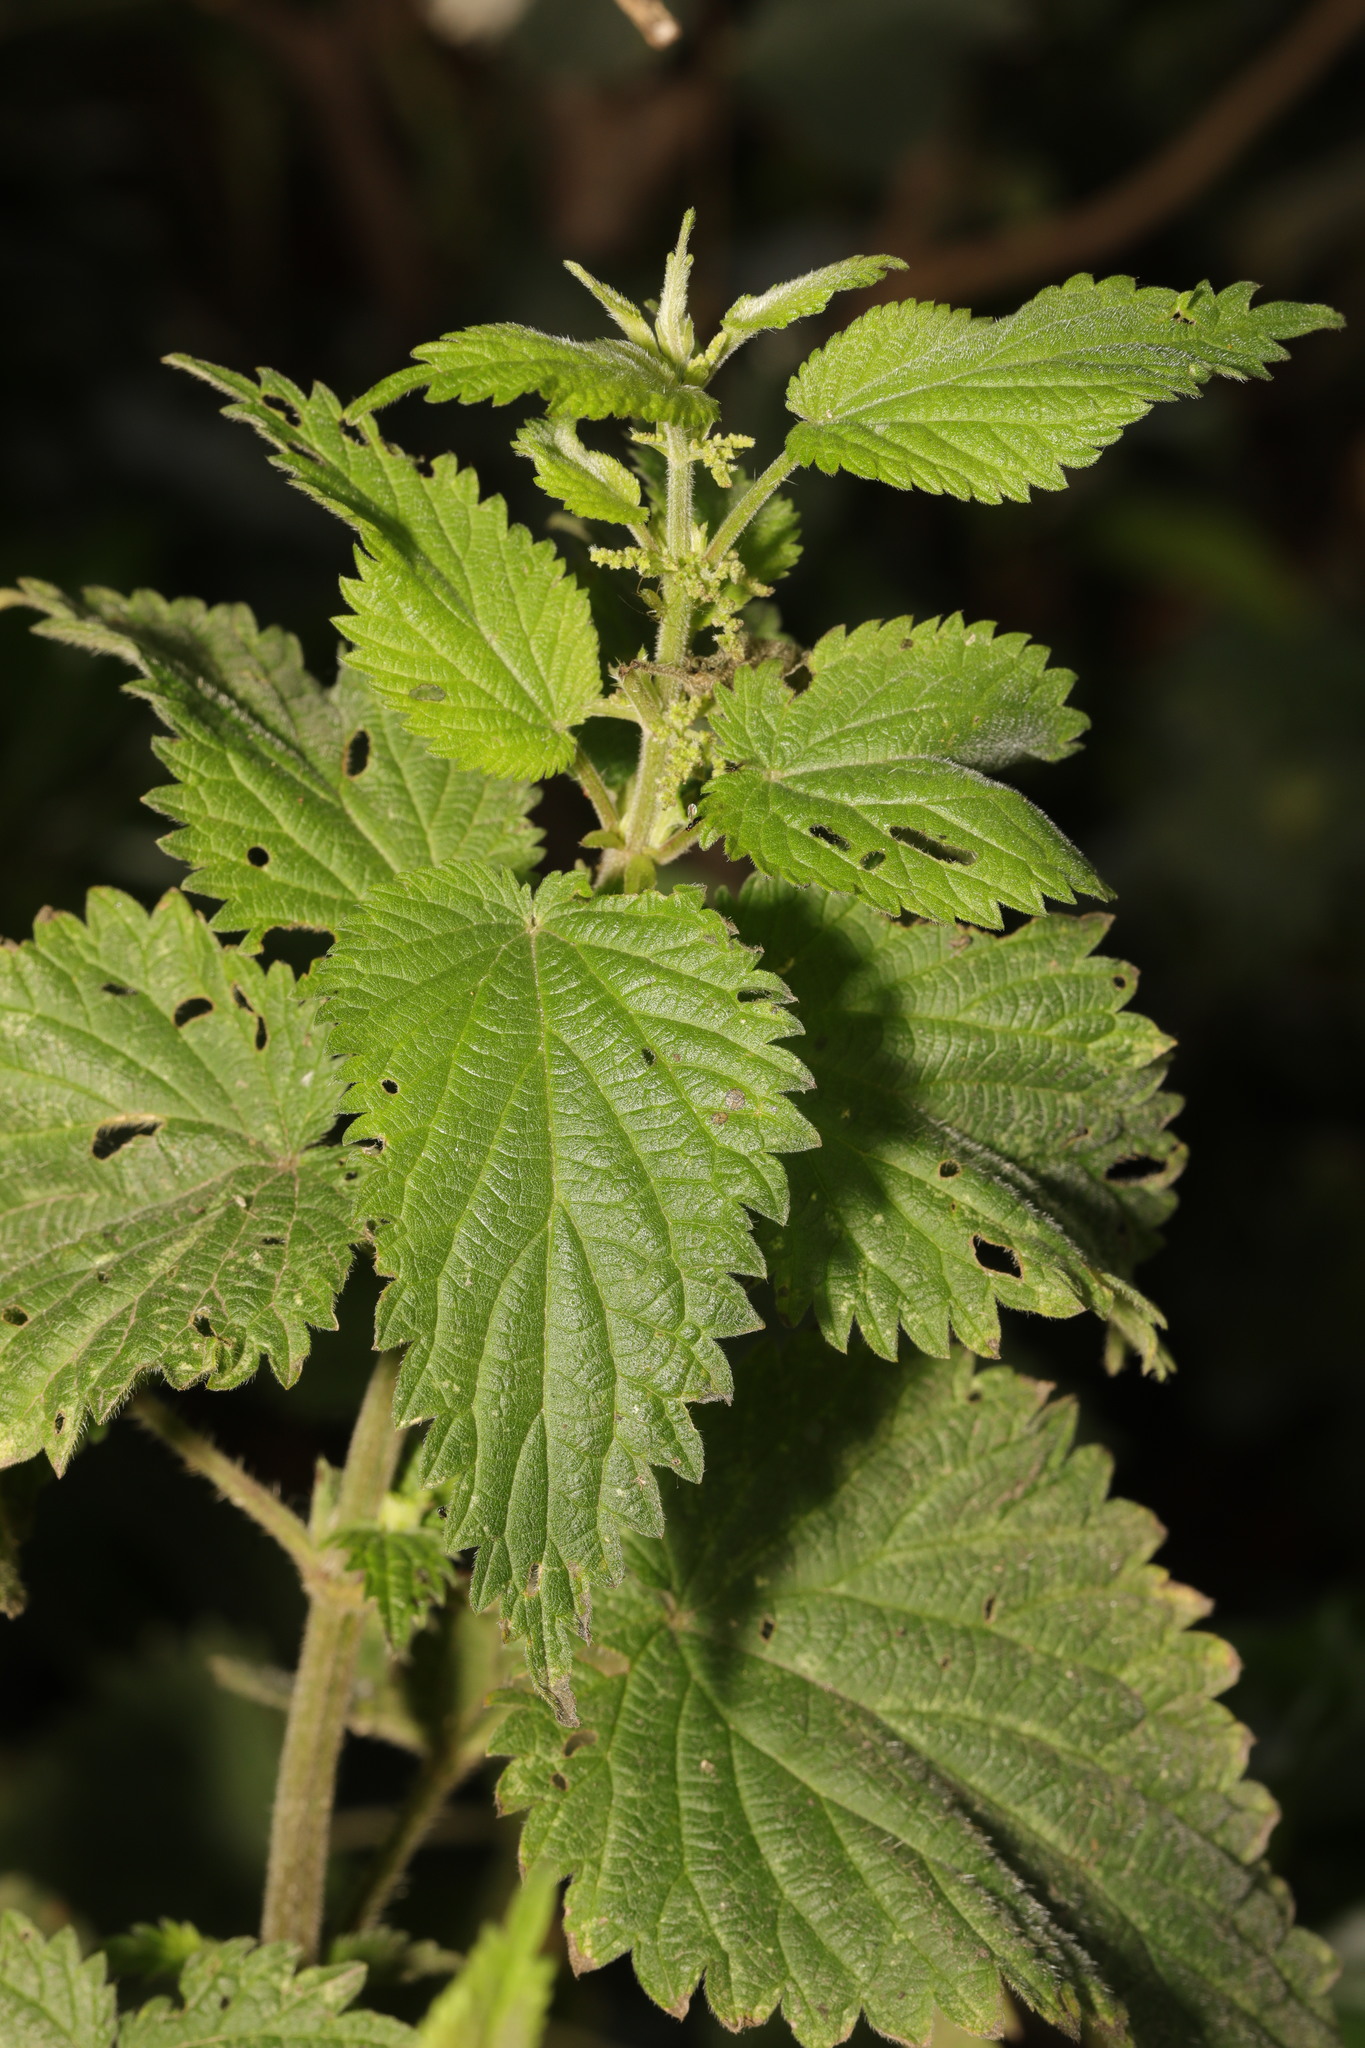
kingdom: Plantae
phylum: Tracheophyta
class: Magnoliopsida
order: Rosales
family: Urticaceae
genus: Urtica
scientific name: Urtica dioica
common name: Common nettle
